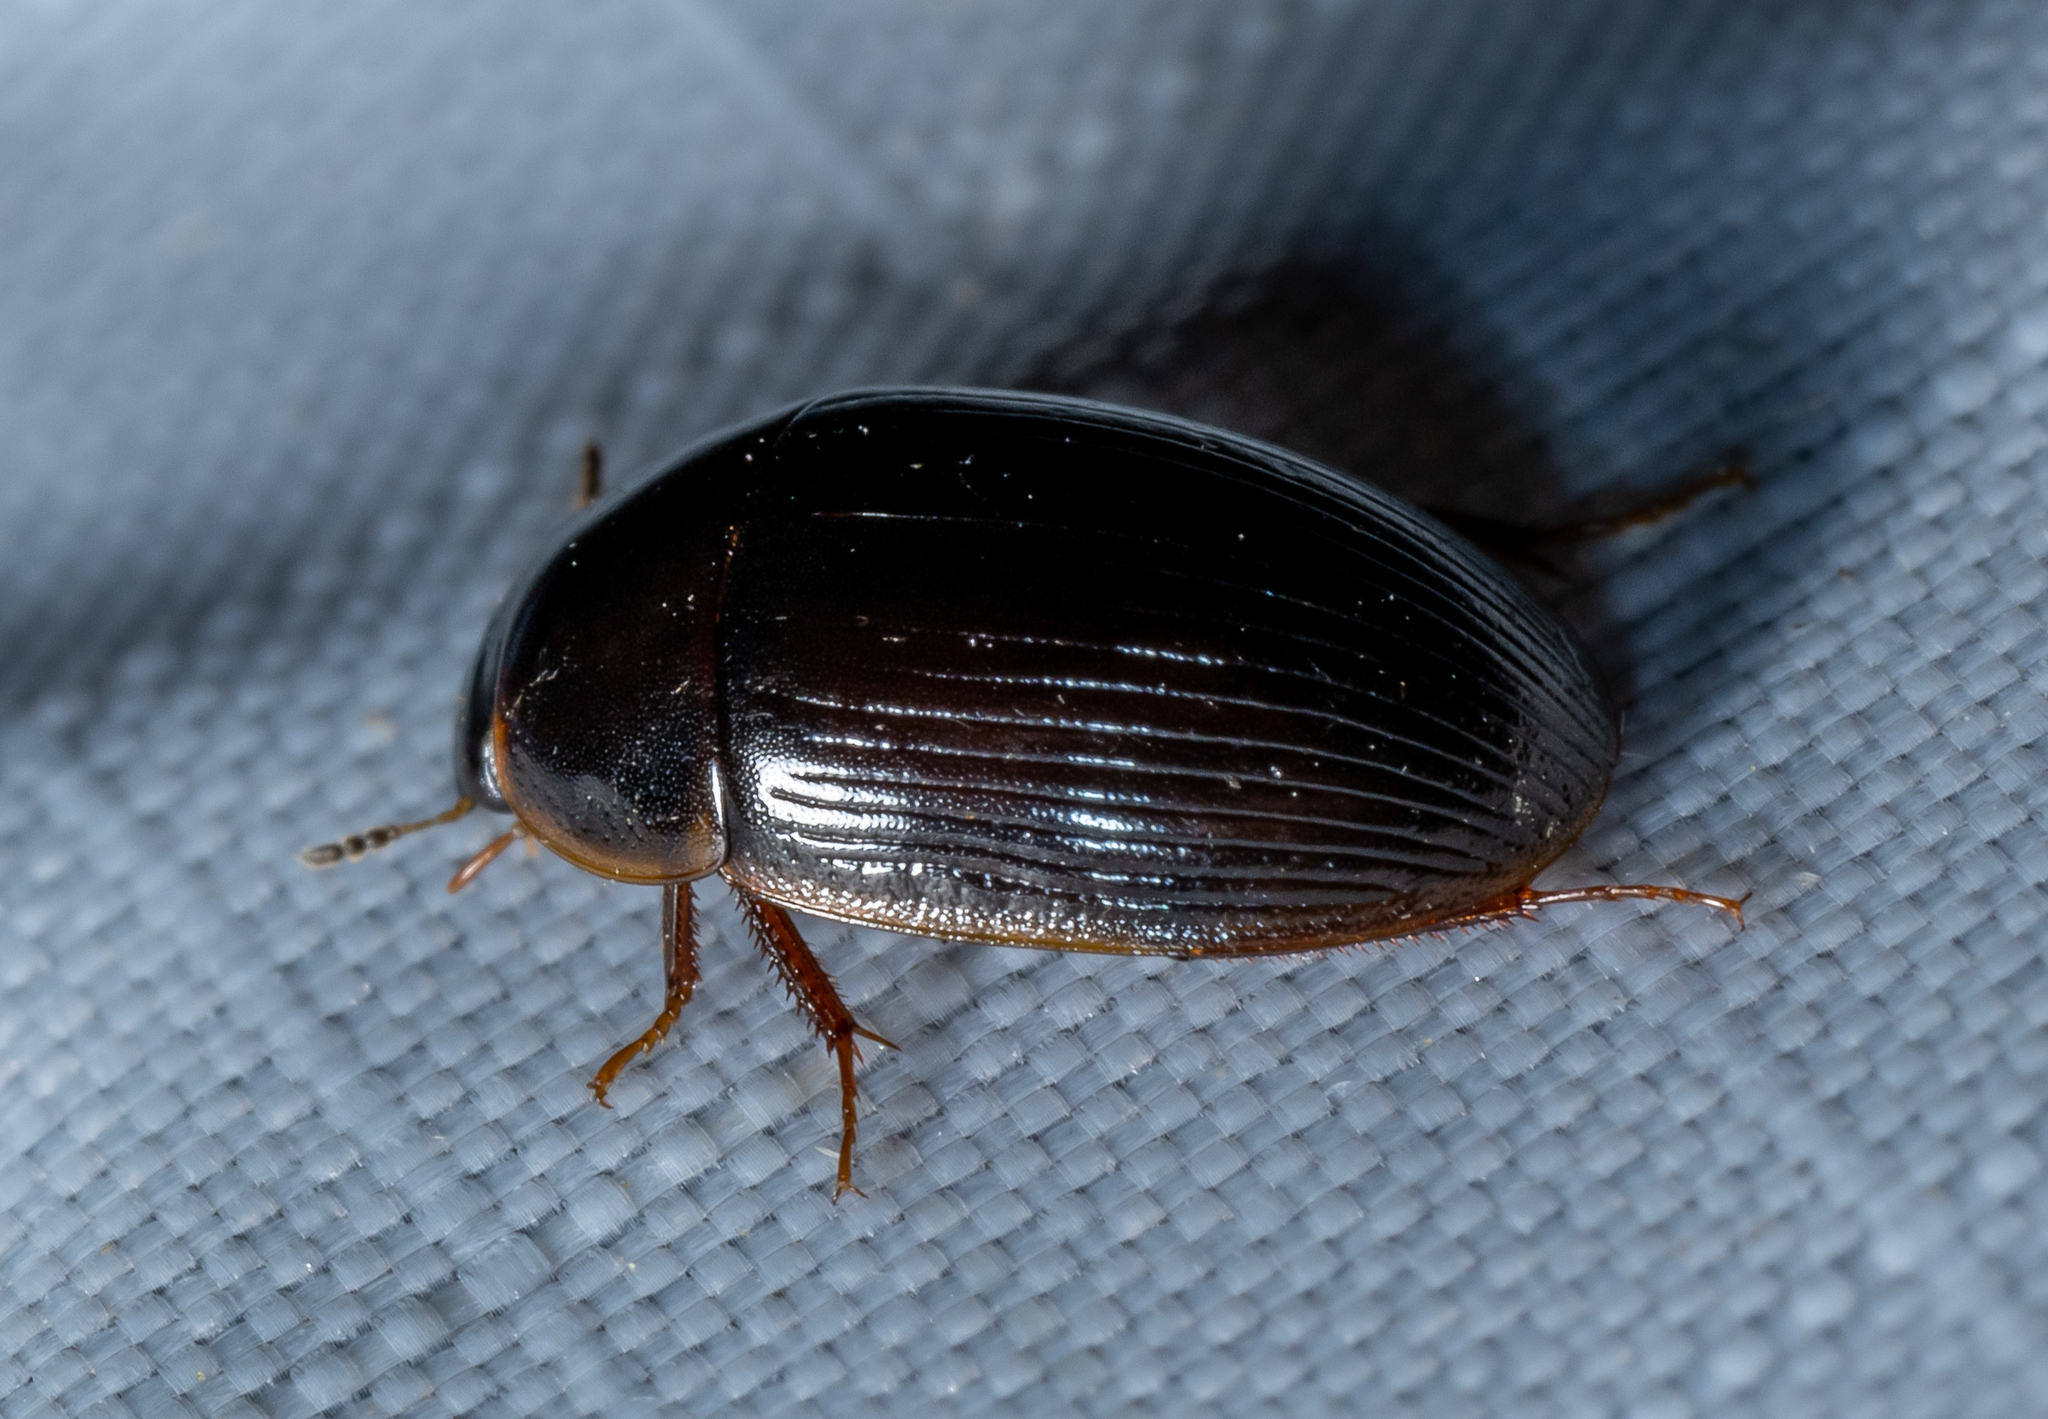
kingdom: Animalia
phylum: Arthropoda
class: Insecta
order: Coleoptera
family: Hydrophilidae
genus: Cymbiodyta
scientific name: Cymbiodyta bifida
